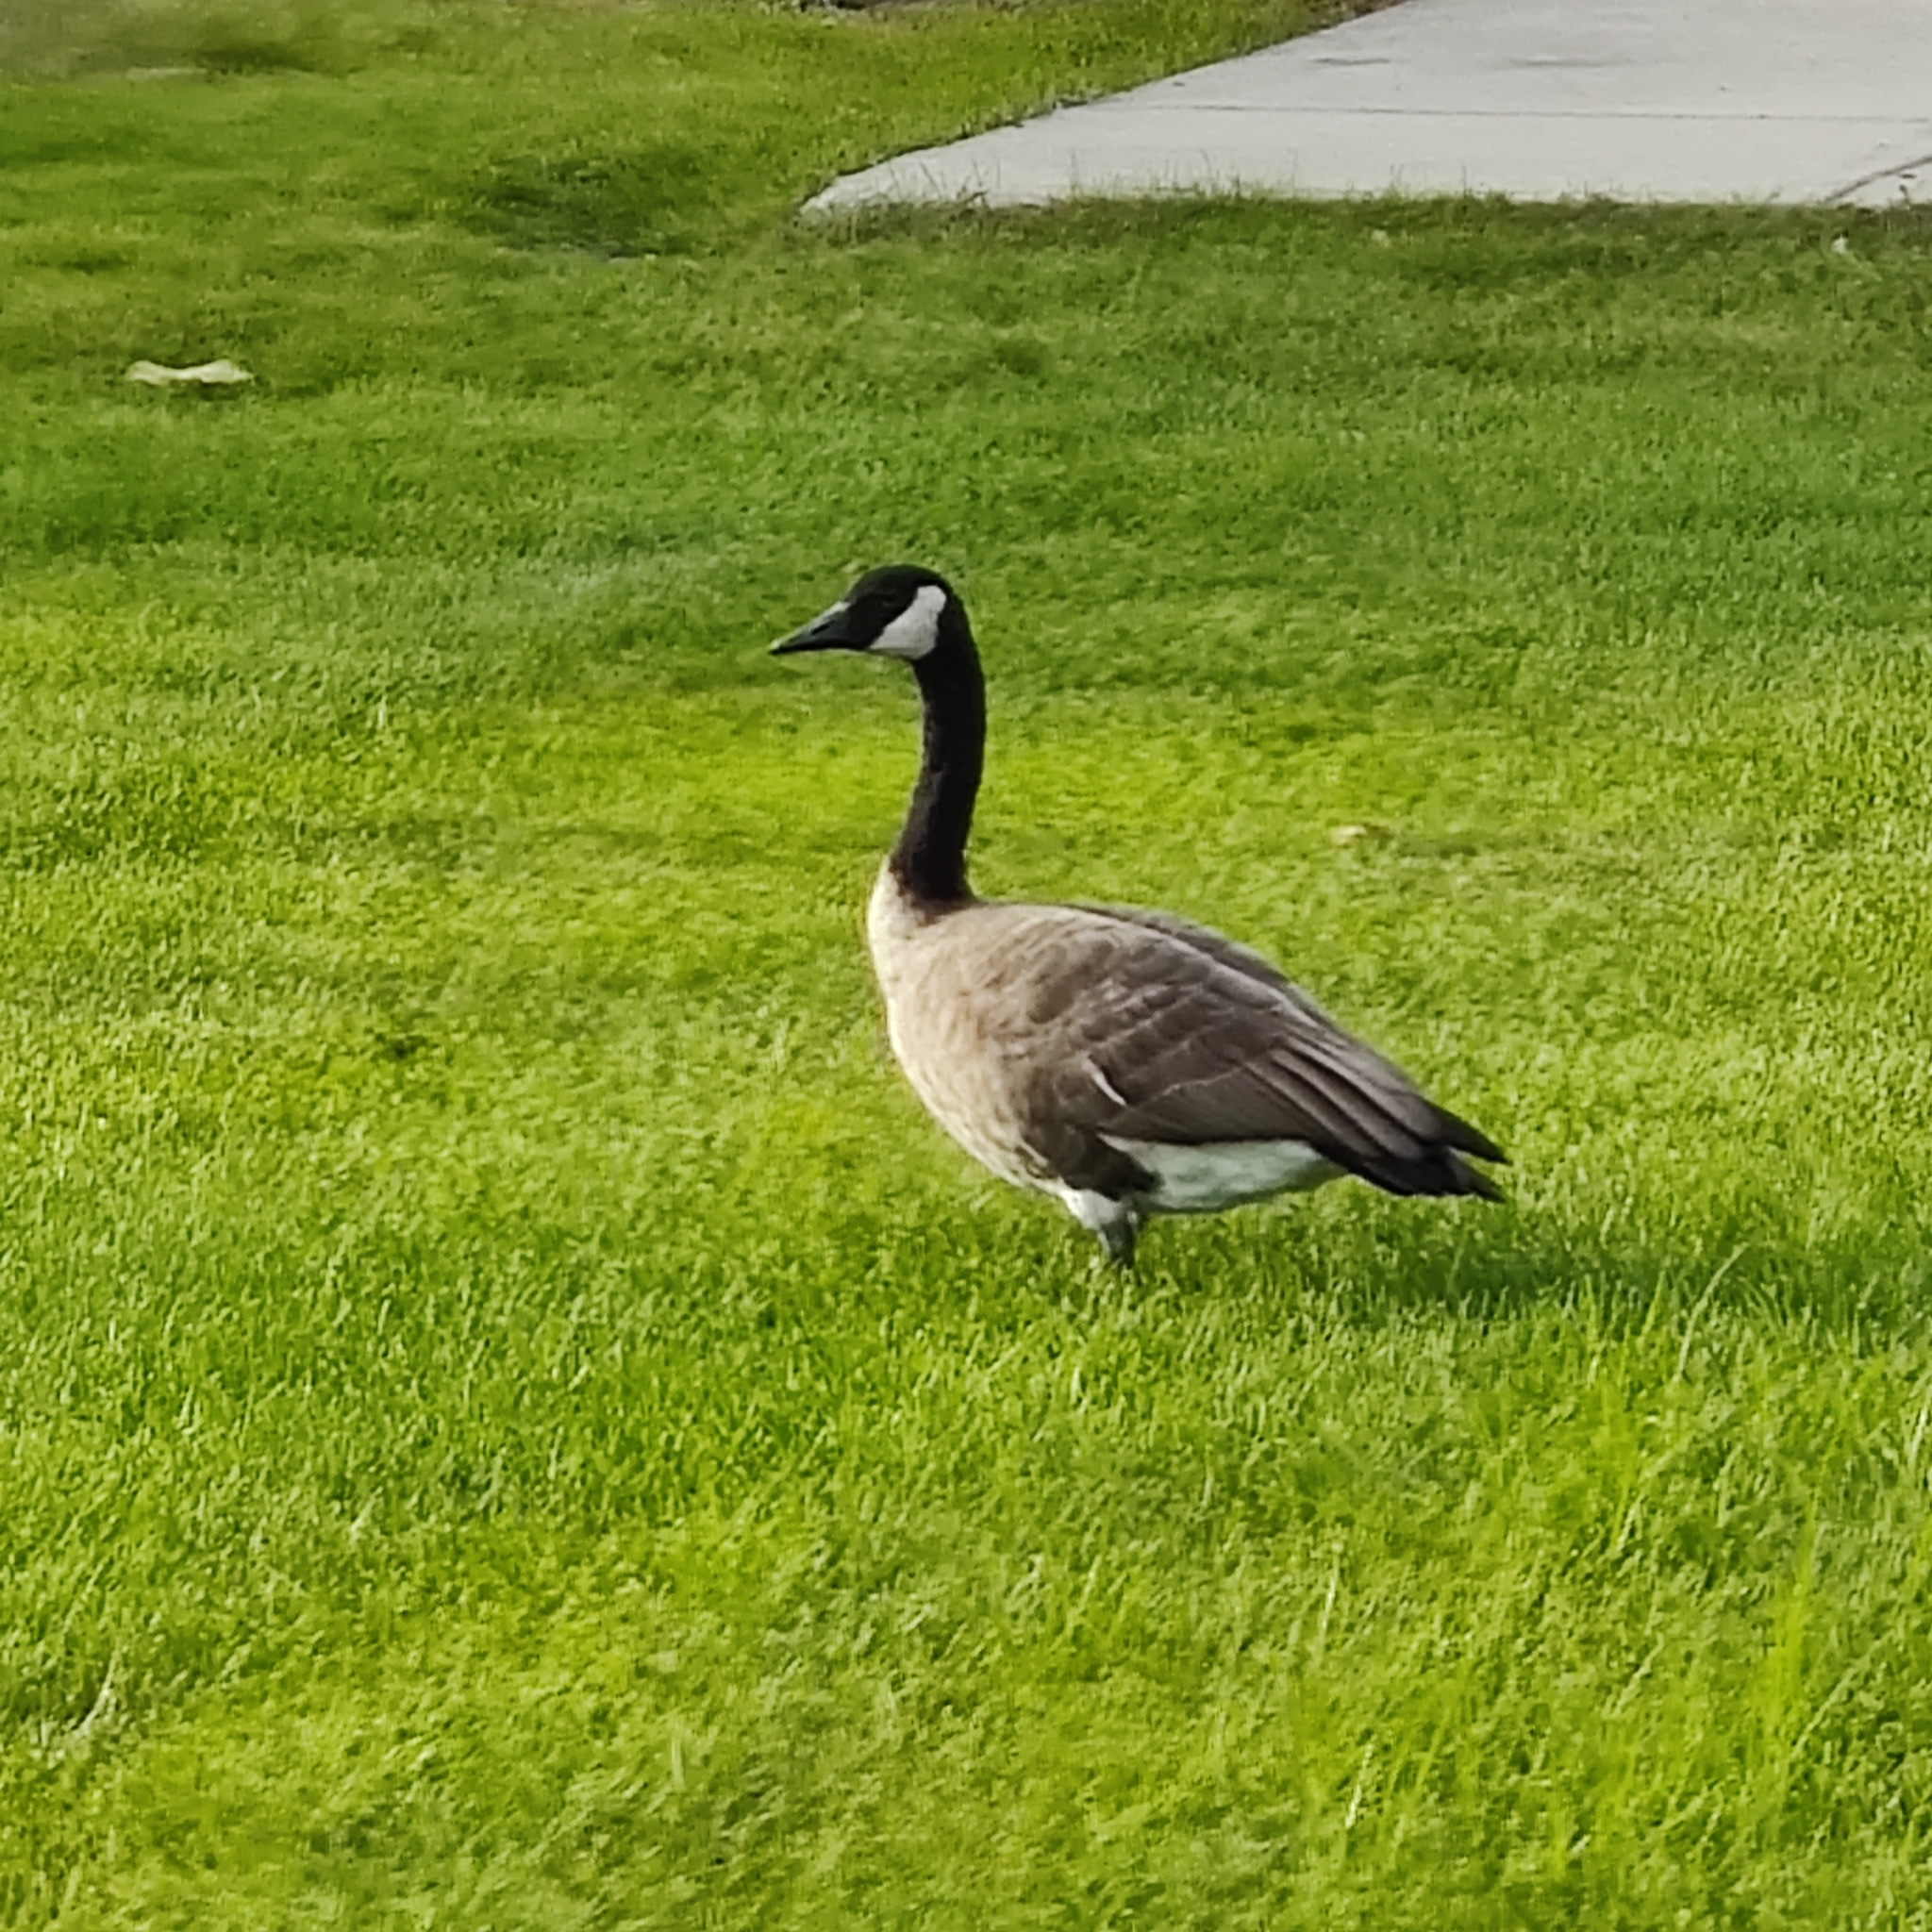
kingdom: Animalia
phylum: Chordata
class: Aves
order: Anseriformes
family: Anatidae
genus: Branta
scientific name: Branta canadensis
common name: Canada goose
